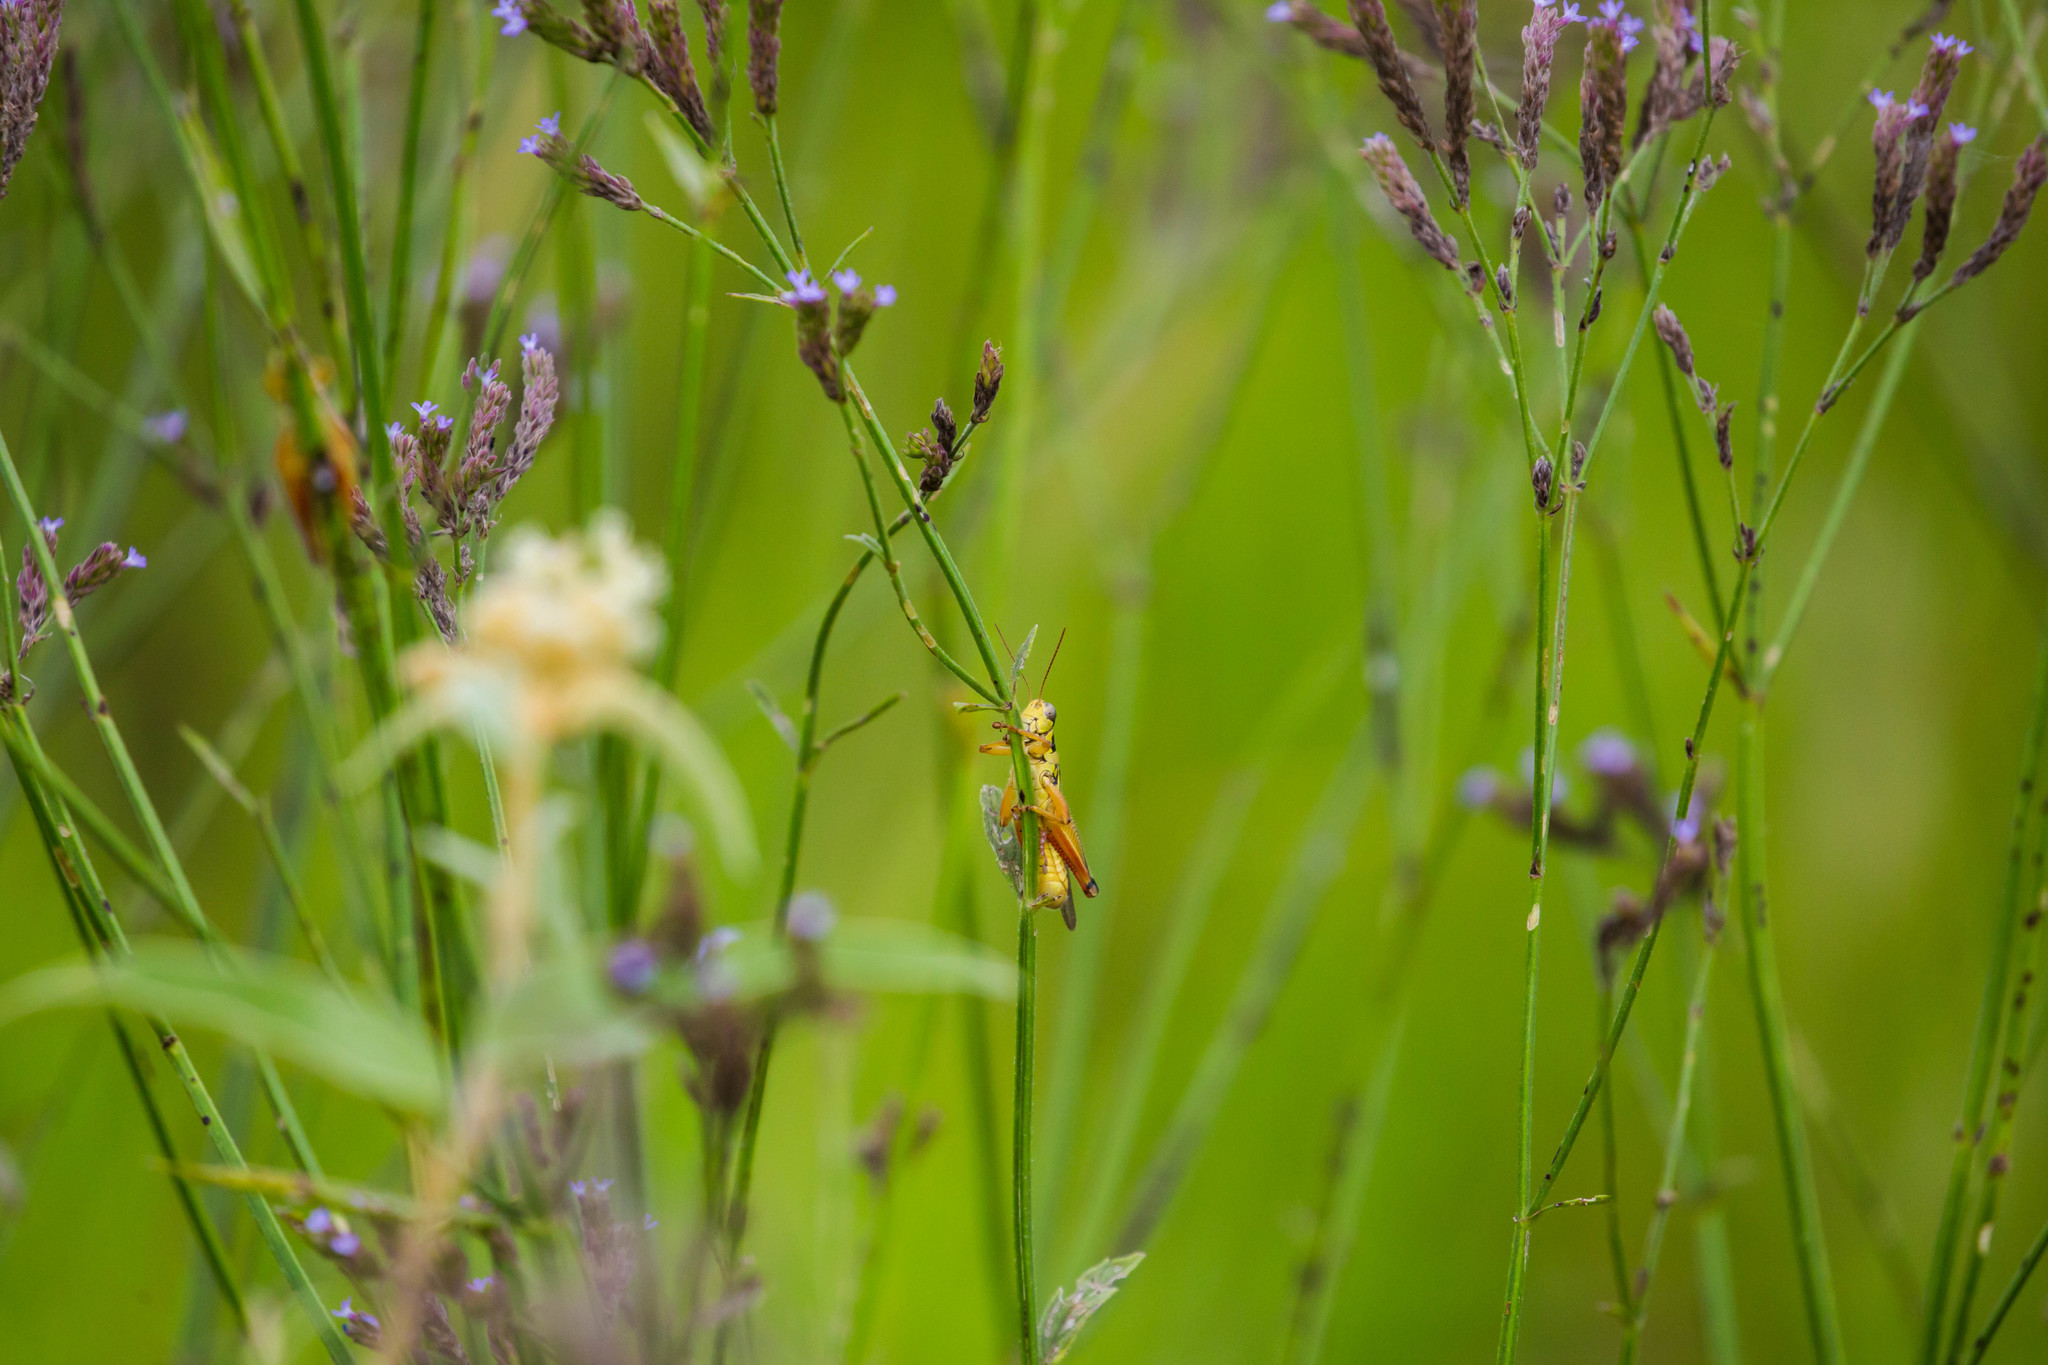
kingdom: Animalia
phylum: Arthropoda
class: Insecta
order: Orthoptera
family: Acrididae
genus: Melanoplus
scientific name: Melanoplus femurrubrum
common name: Red-legged grasshopper
